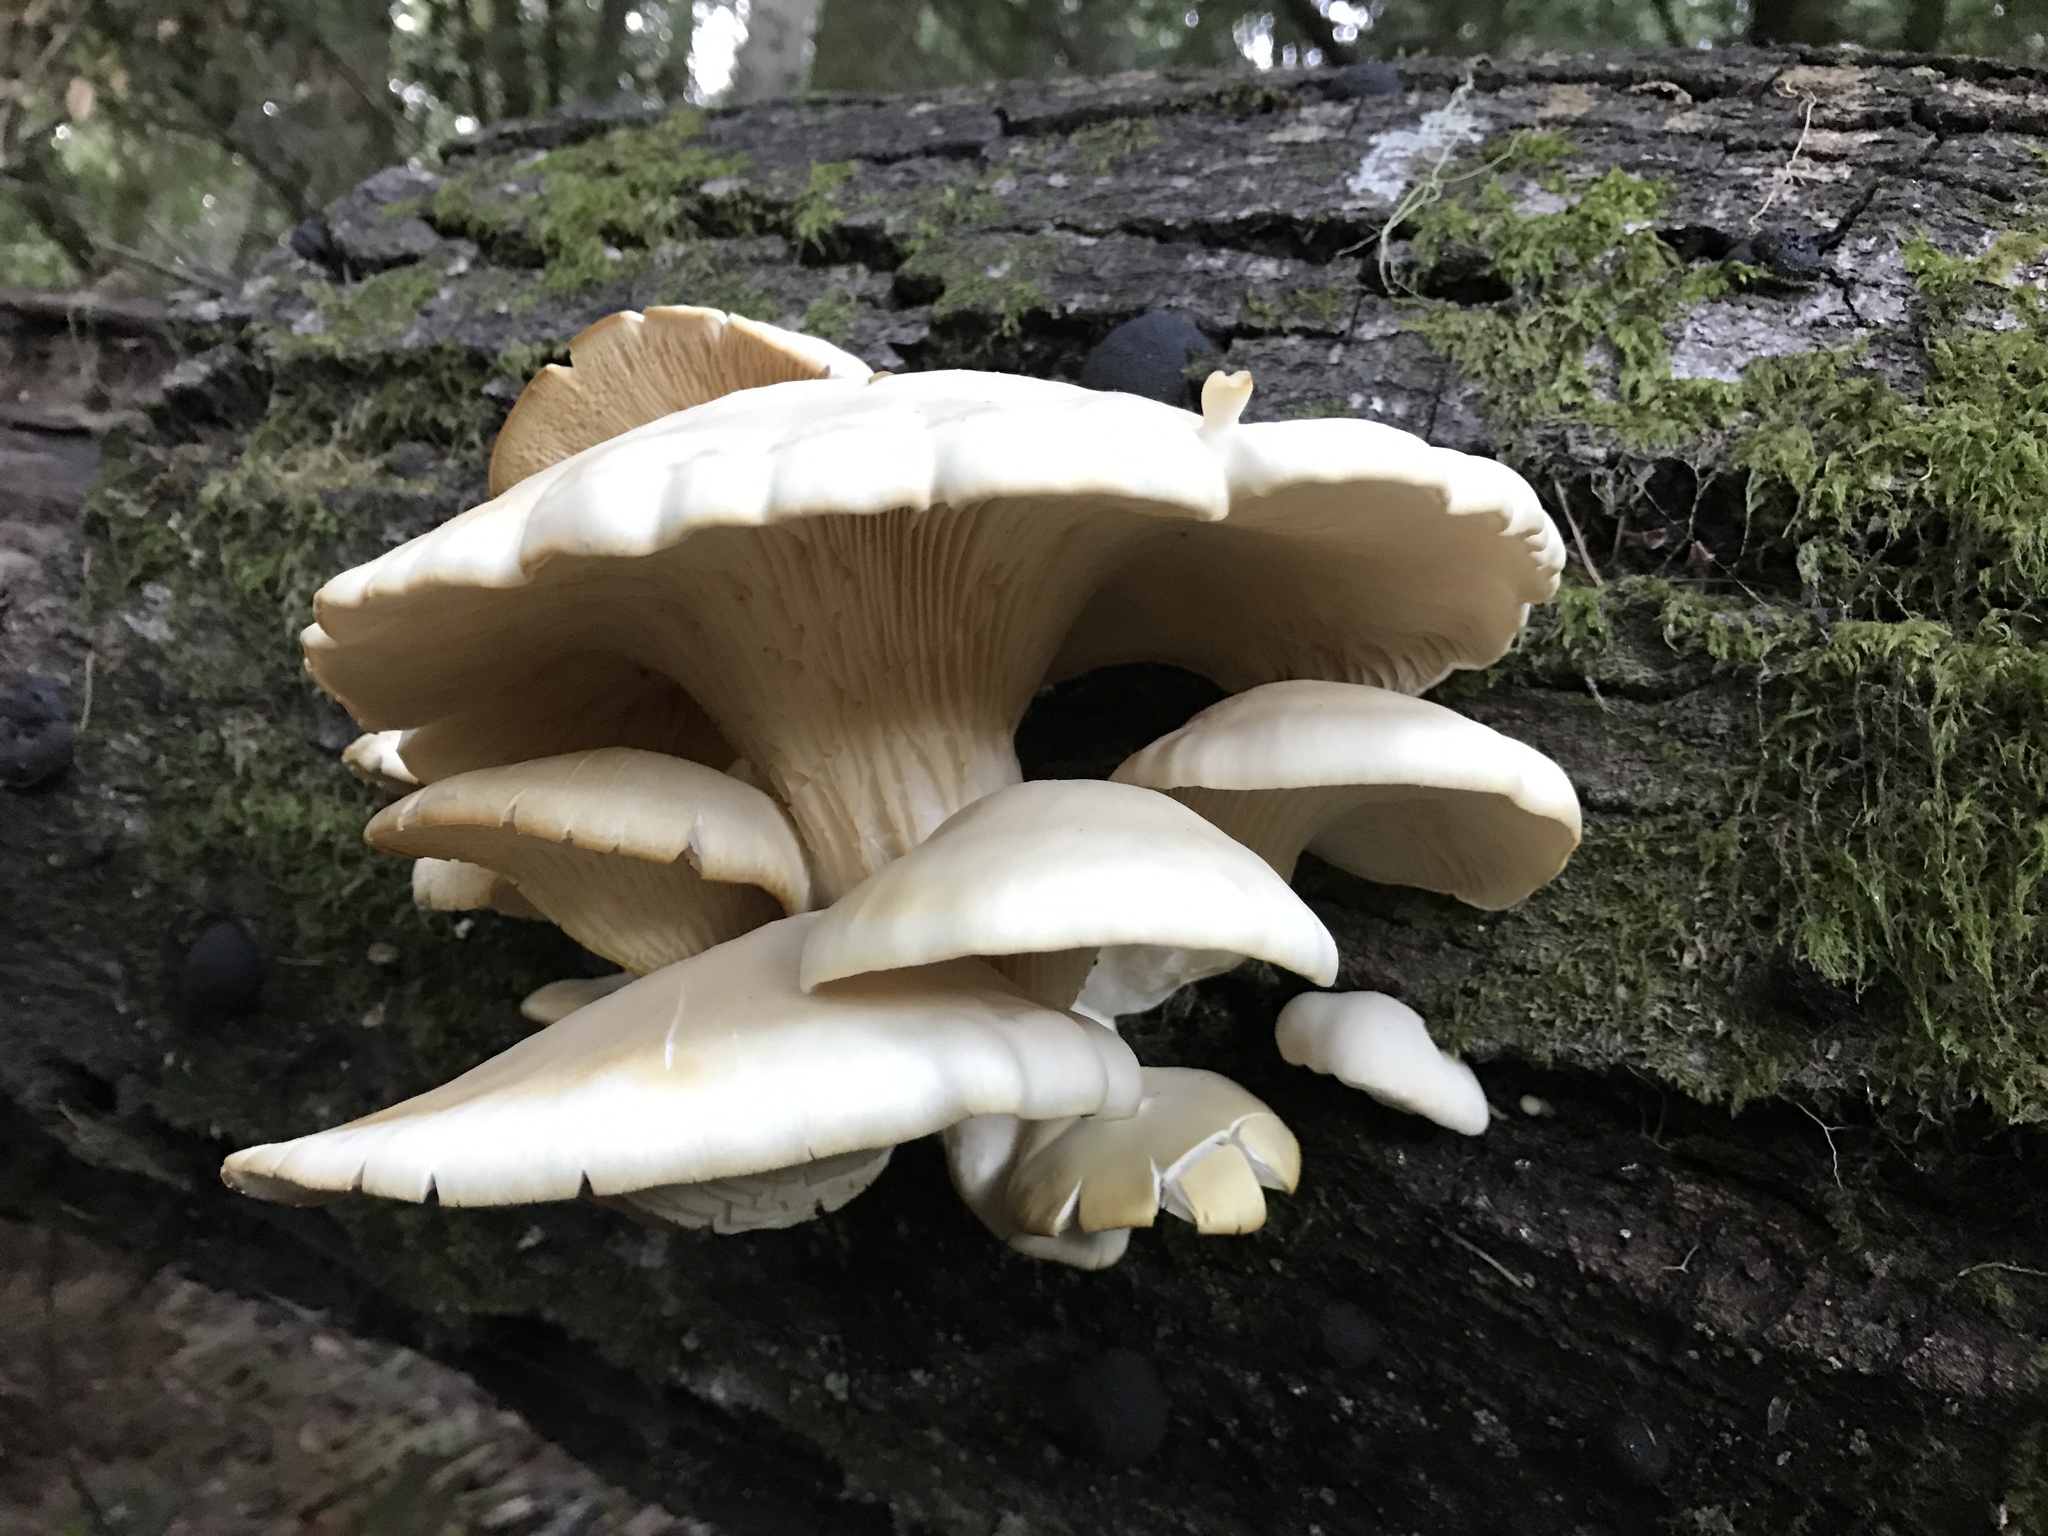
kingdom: Fungi
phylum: Basidiomycota
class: Agaricomycetes
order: Agaricales
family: Pleurotaceae
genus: Pleurotus
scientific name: Pleurotus ostreatus
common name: Oyster mushroom
